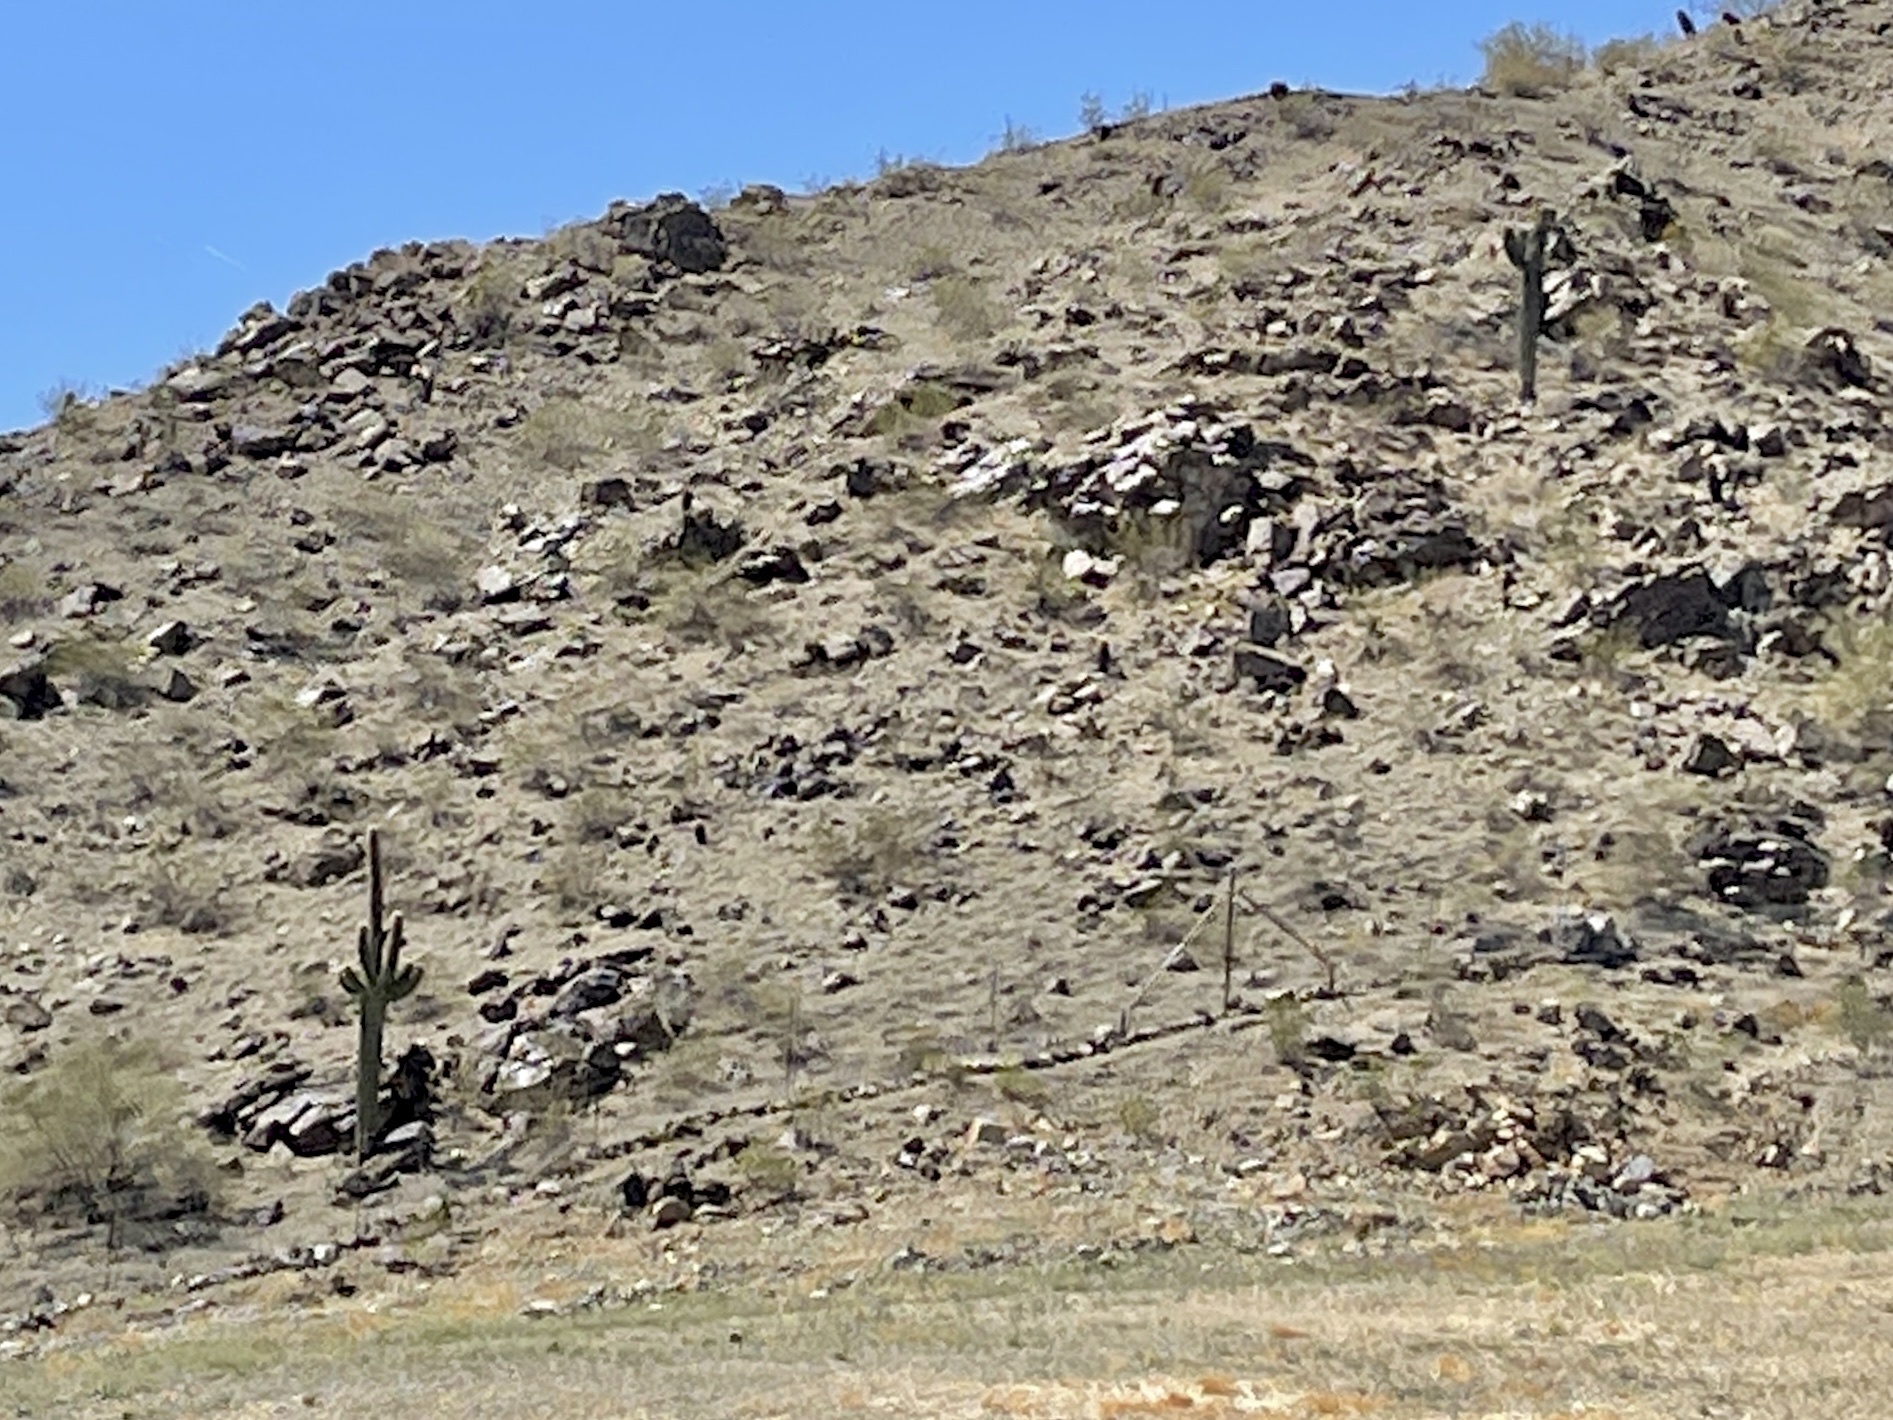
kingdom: Plantae
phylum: Tracheophyta
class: Magnoliopsida
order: Caryophyllales
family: Cactaceae
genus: Carnegiea
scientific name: Carnegiea gigantea
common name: Saguaro
